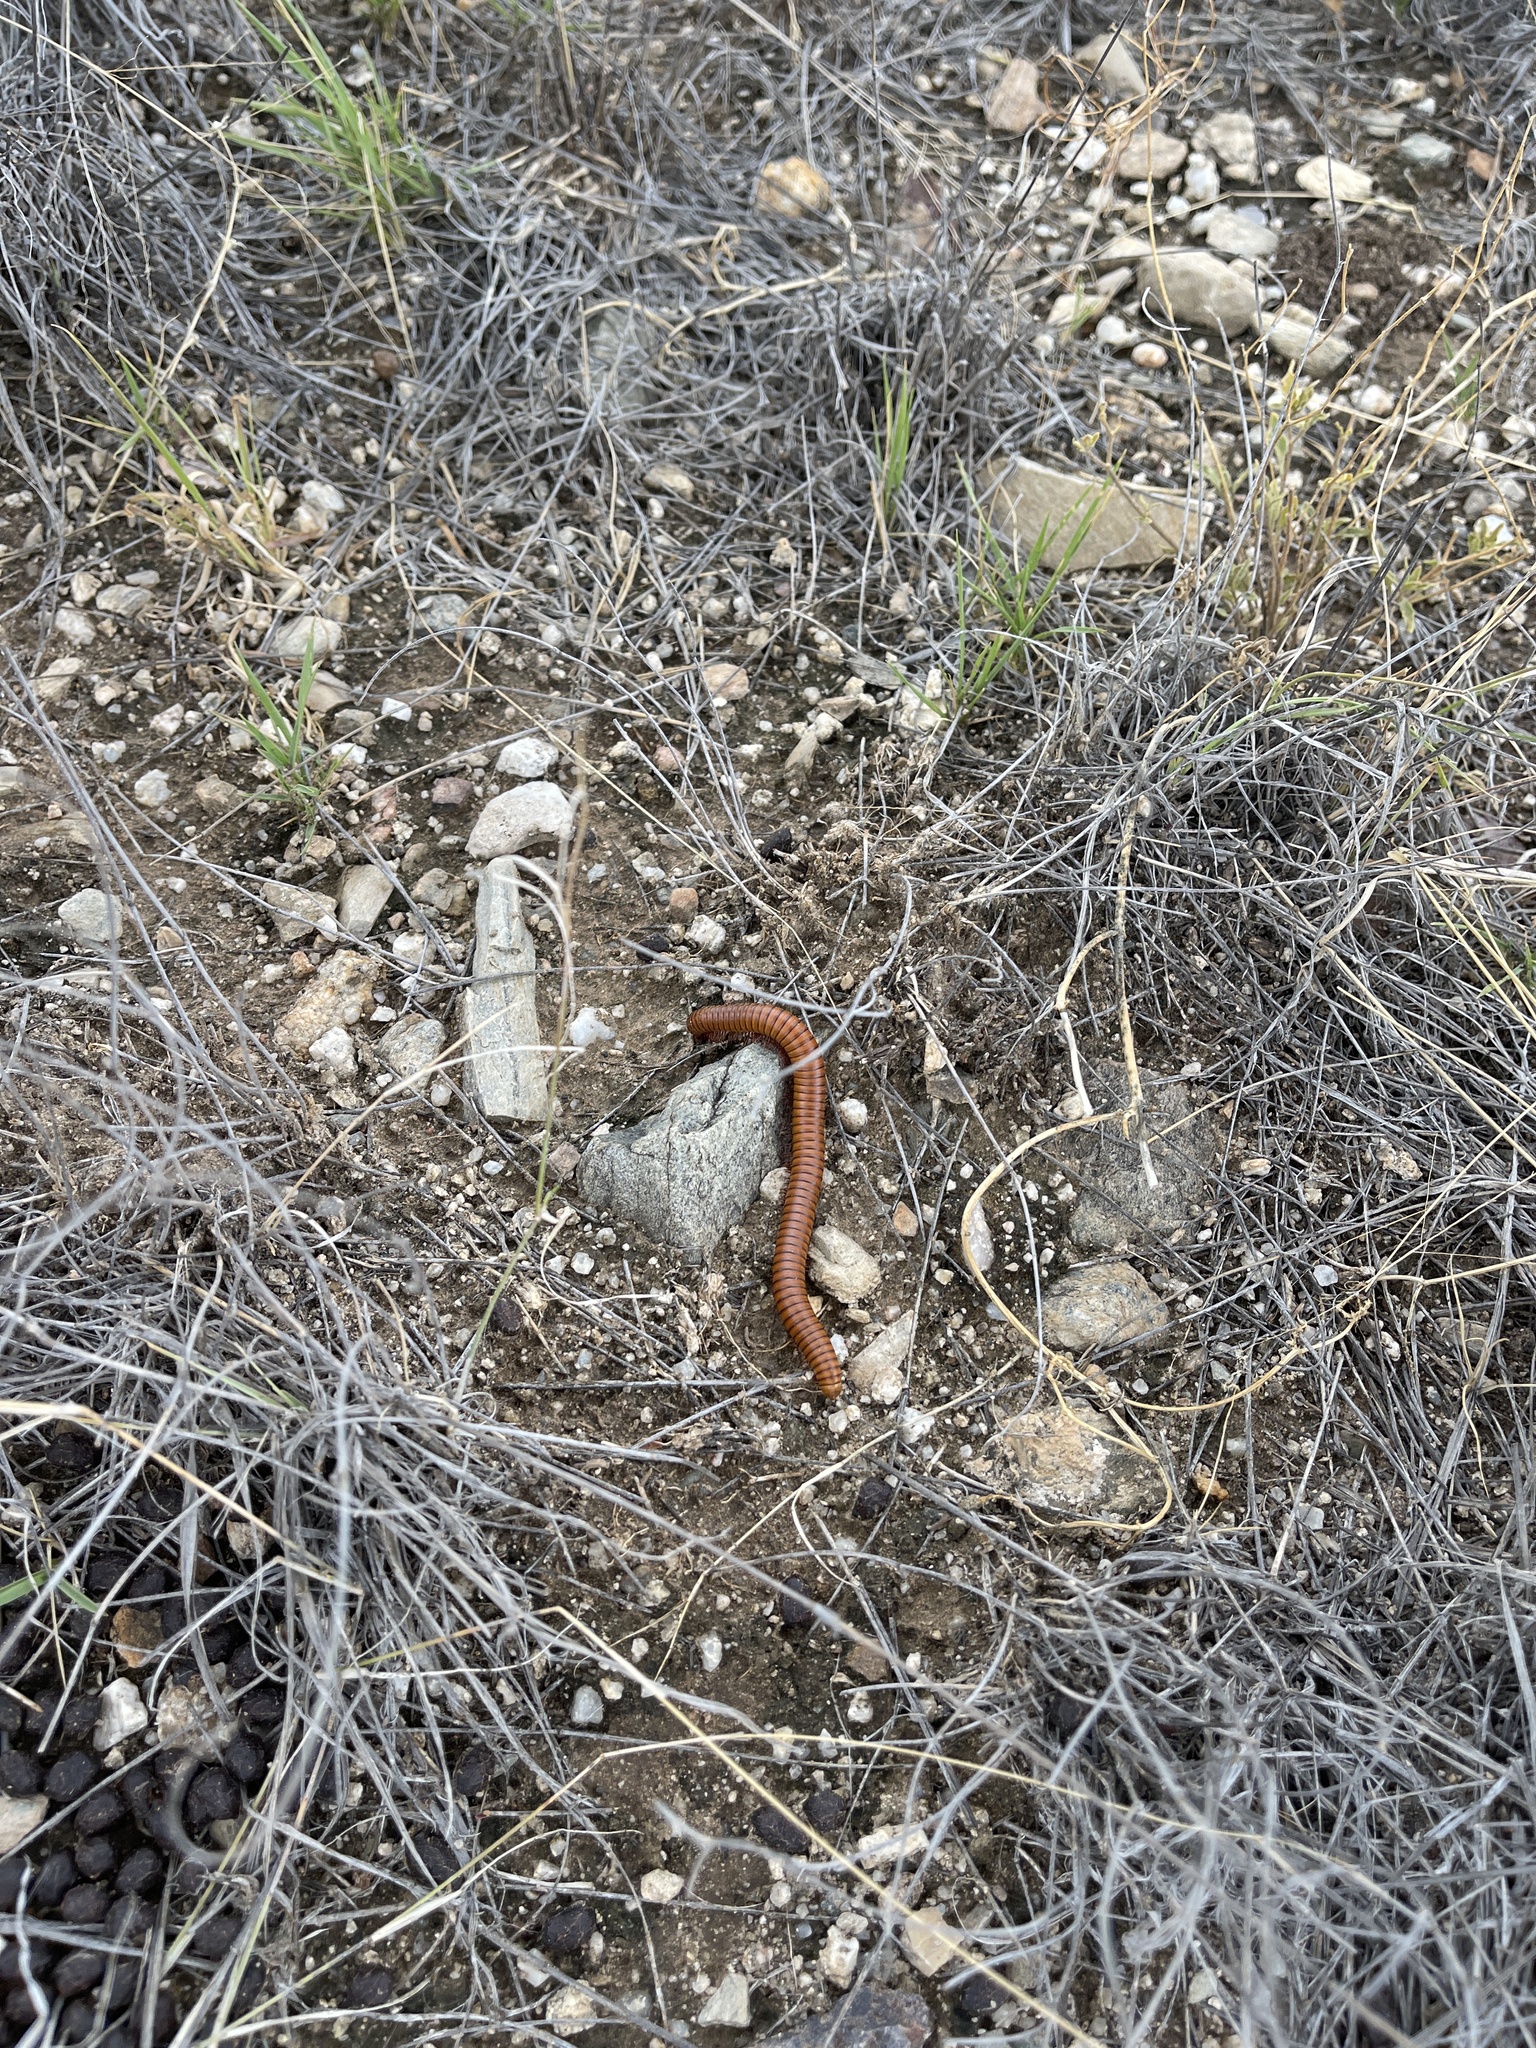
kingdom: Animalia
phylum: Arthropoda
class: Diplopoda
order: Spirostreptida
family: Spirostreptidae
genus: Orthoporus
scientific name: Orthoporus ornatus
